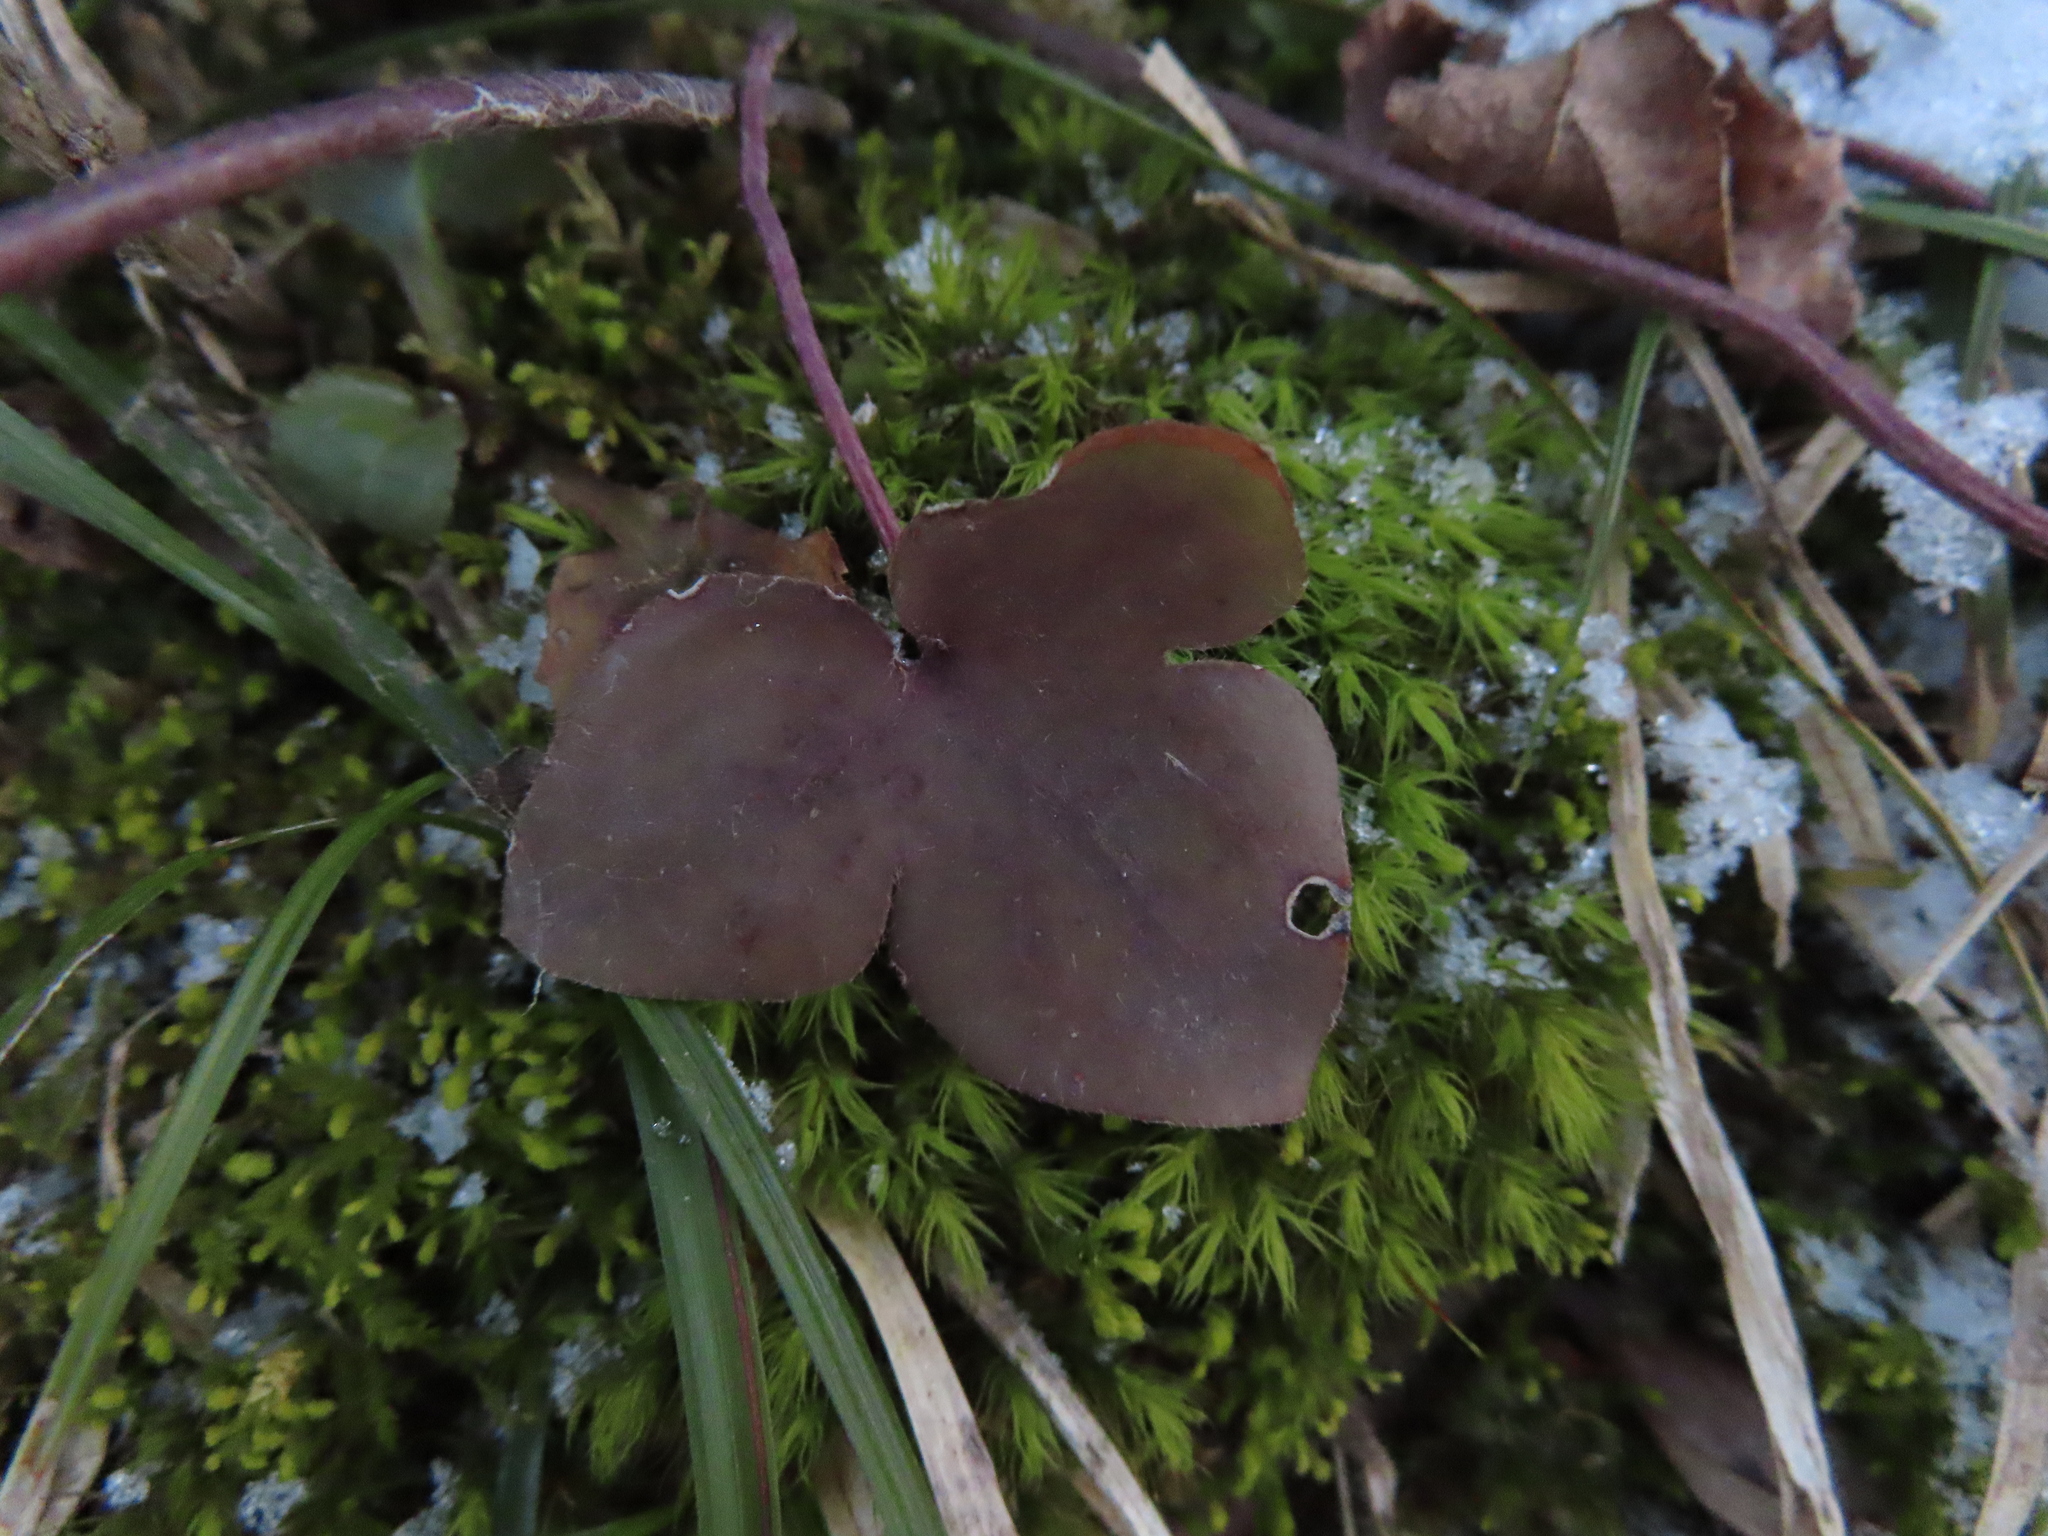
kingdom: Plantae
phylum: Tracheophyta
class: Magnoliopsida
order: Ranunculales
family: Ranunculaceae
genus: Hepatica
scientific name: Hepatica americana
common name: American hepatica
